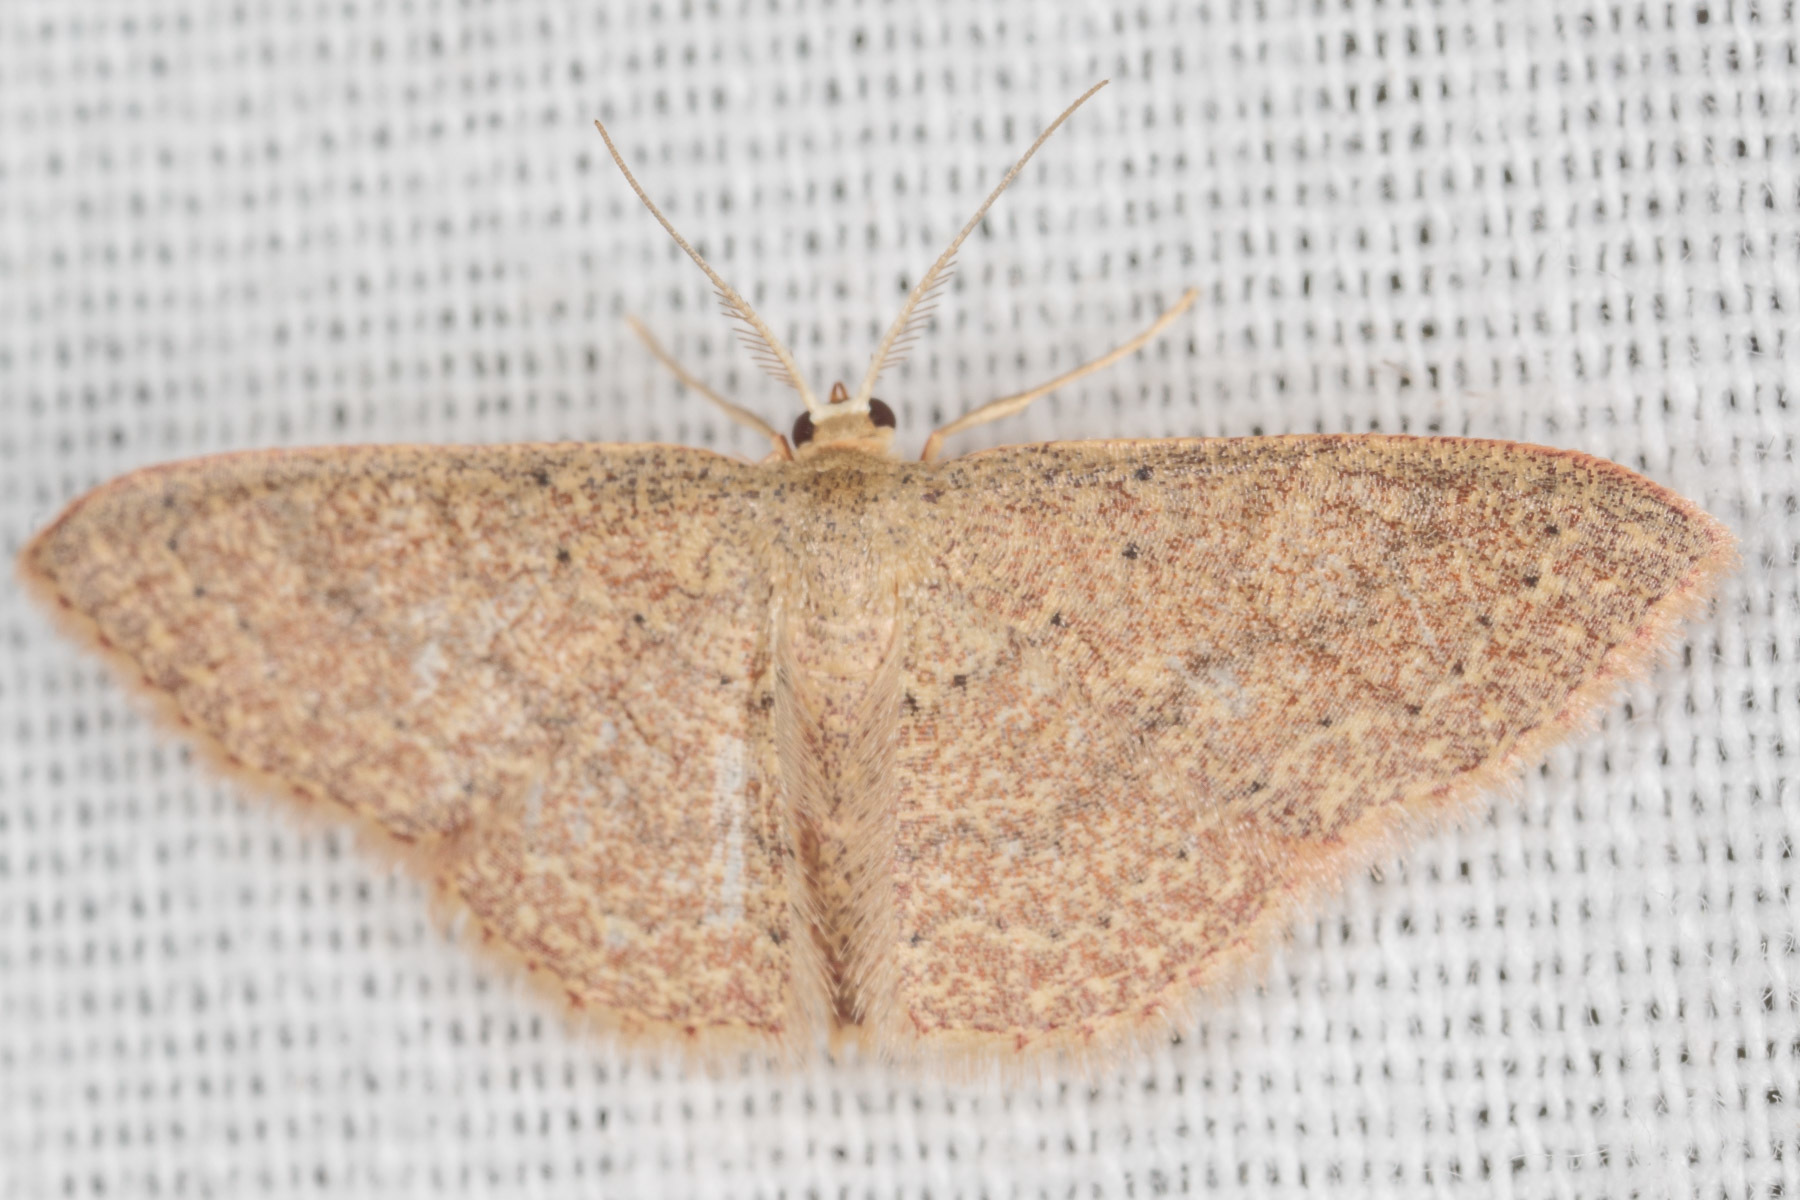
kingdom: Animalia
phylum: Arthropoda
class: Insecta
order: Lepidoptera
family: Geometridae
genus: Pleuroprucha
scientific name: Pleuroprucha insulsaria
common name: Common tan wave
